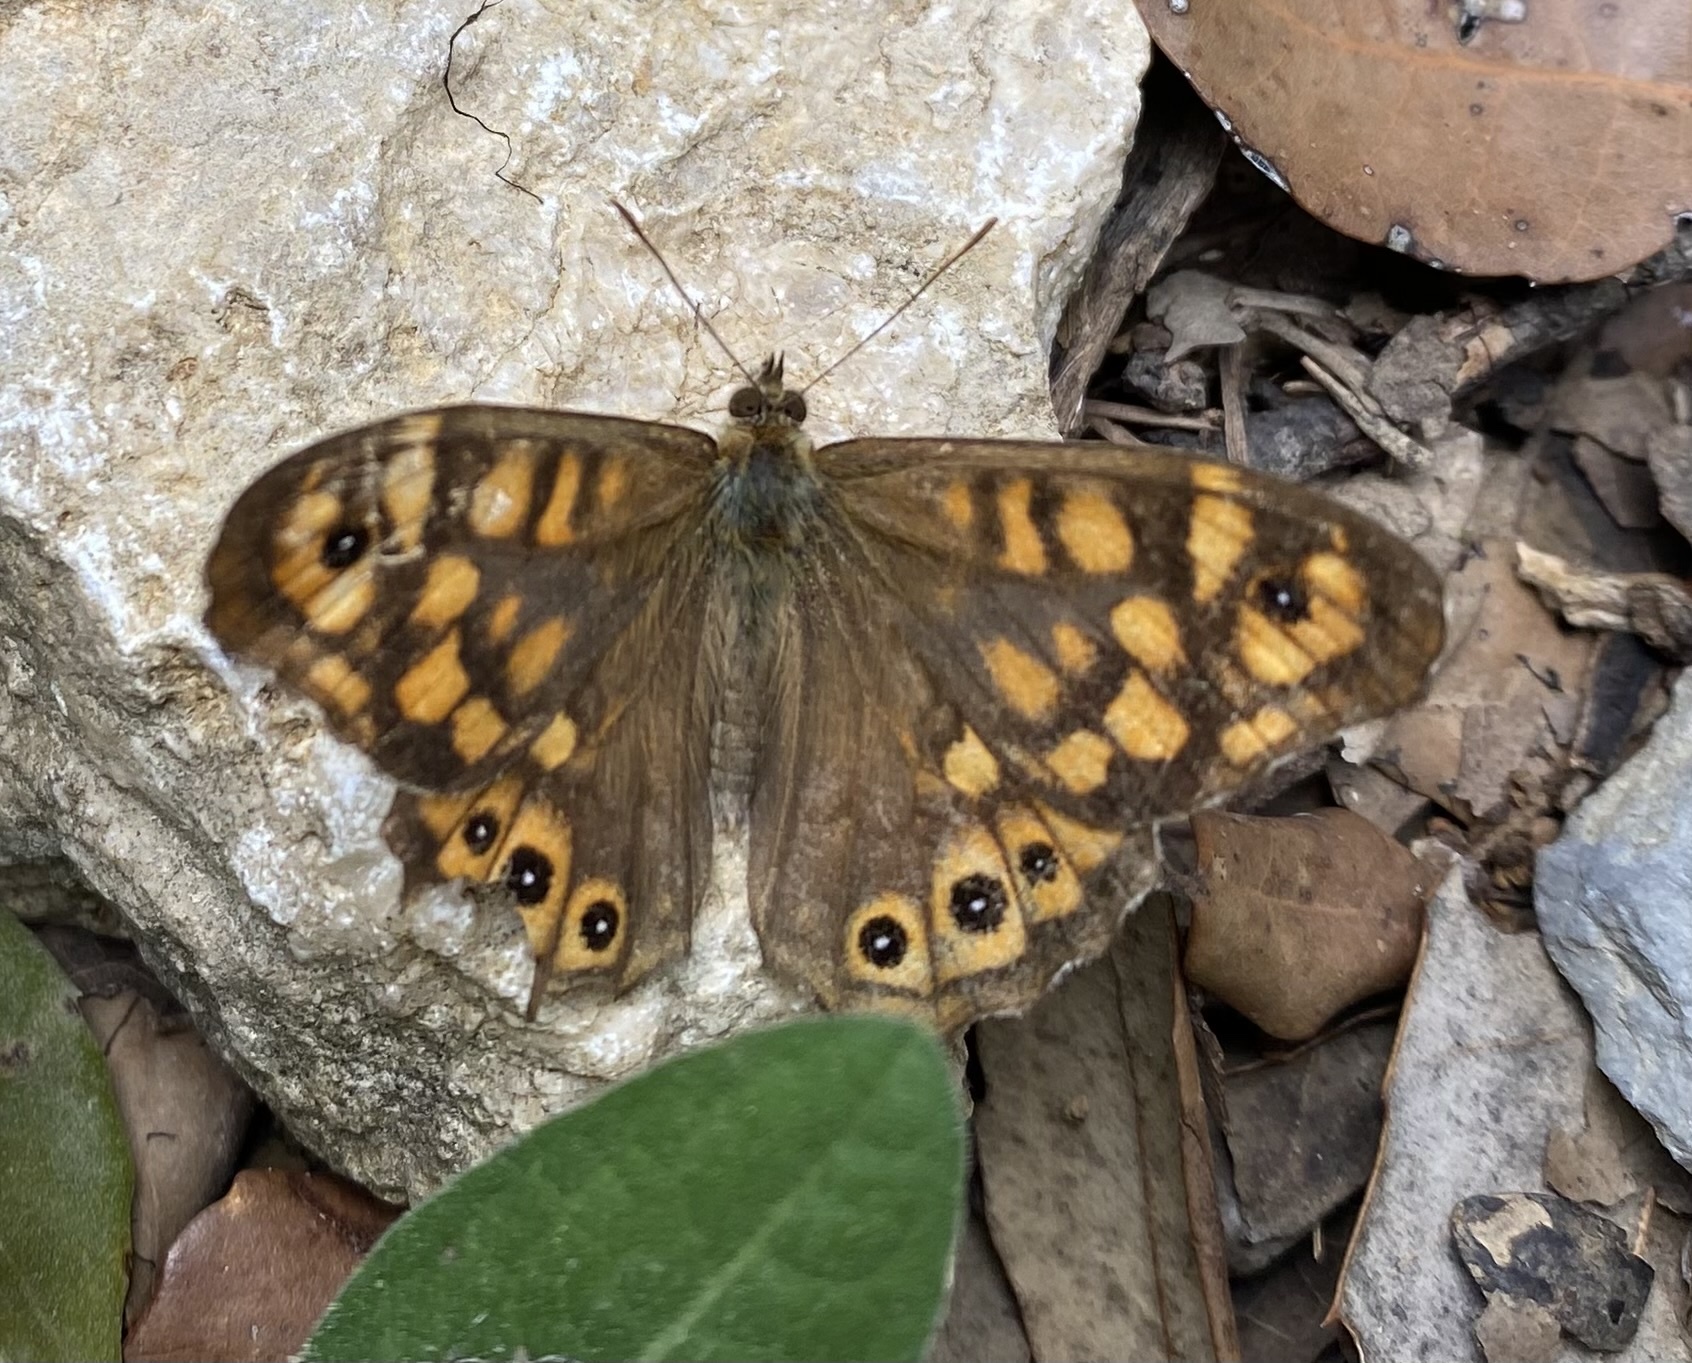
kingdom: Animalia
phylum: Arthropoda
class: Insecta
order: Lepidoptera
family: Nymphalidae
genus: Pararge
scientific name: Pararge aegeria
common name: Speckled wood
